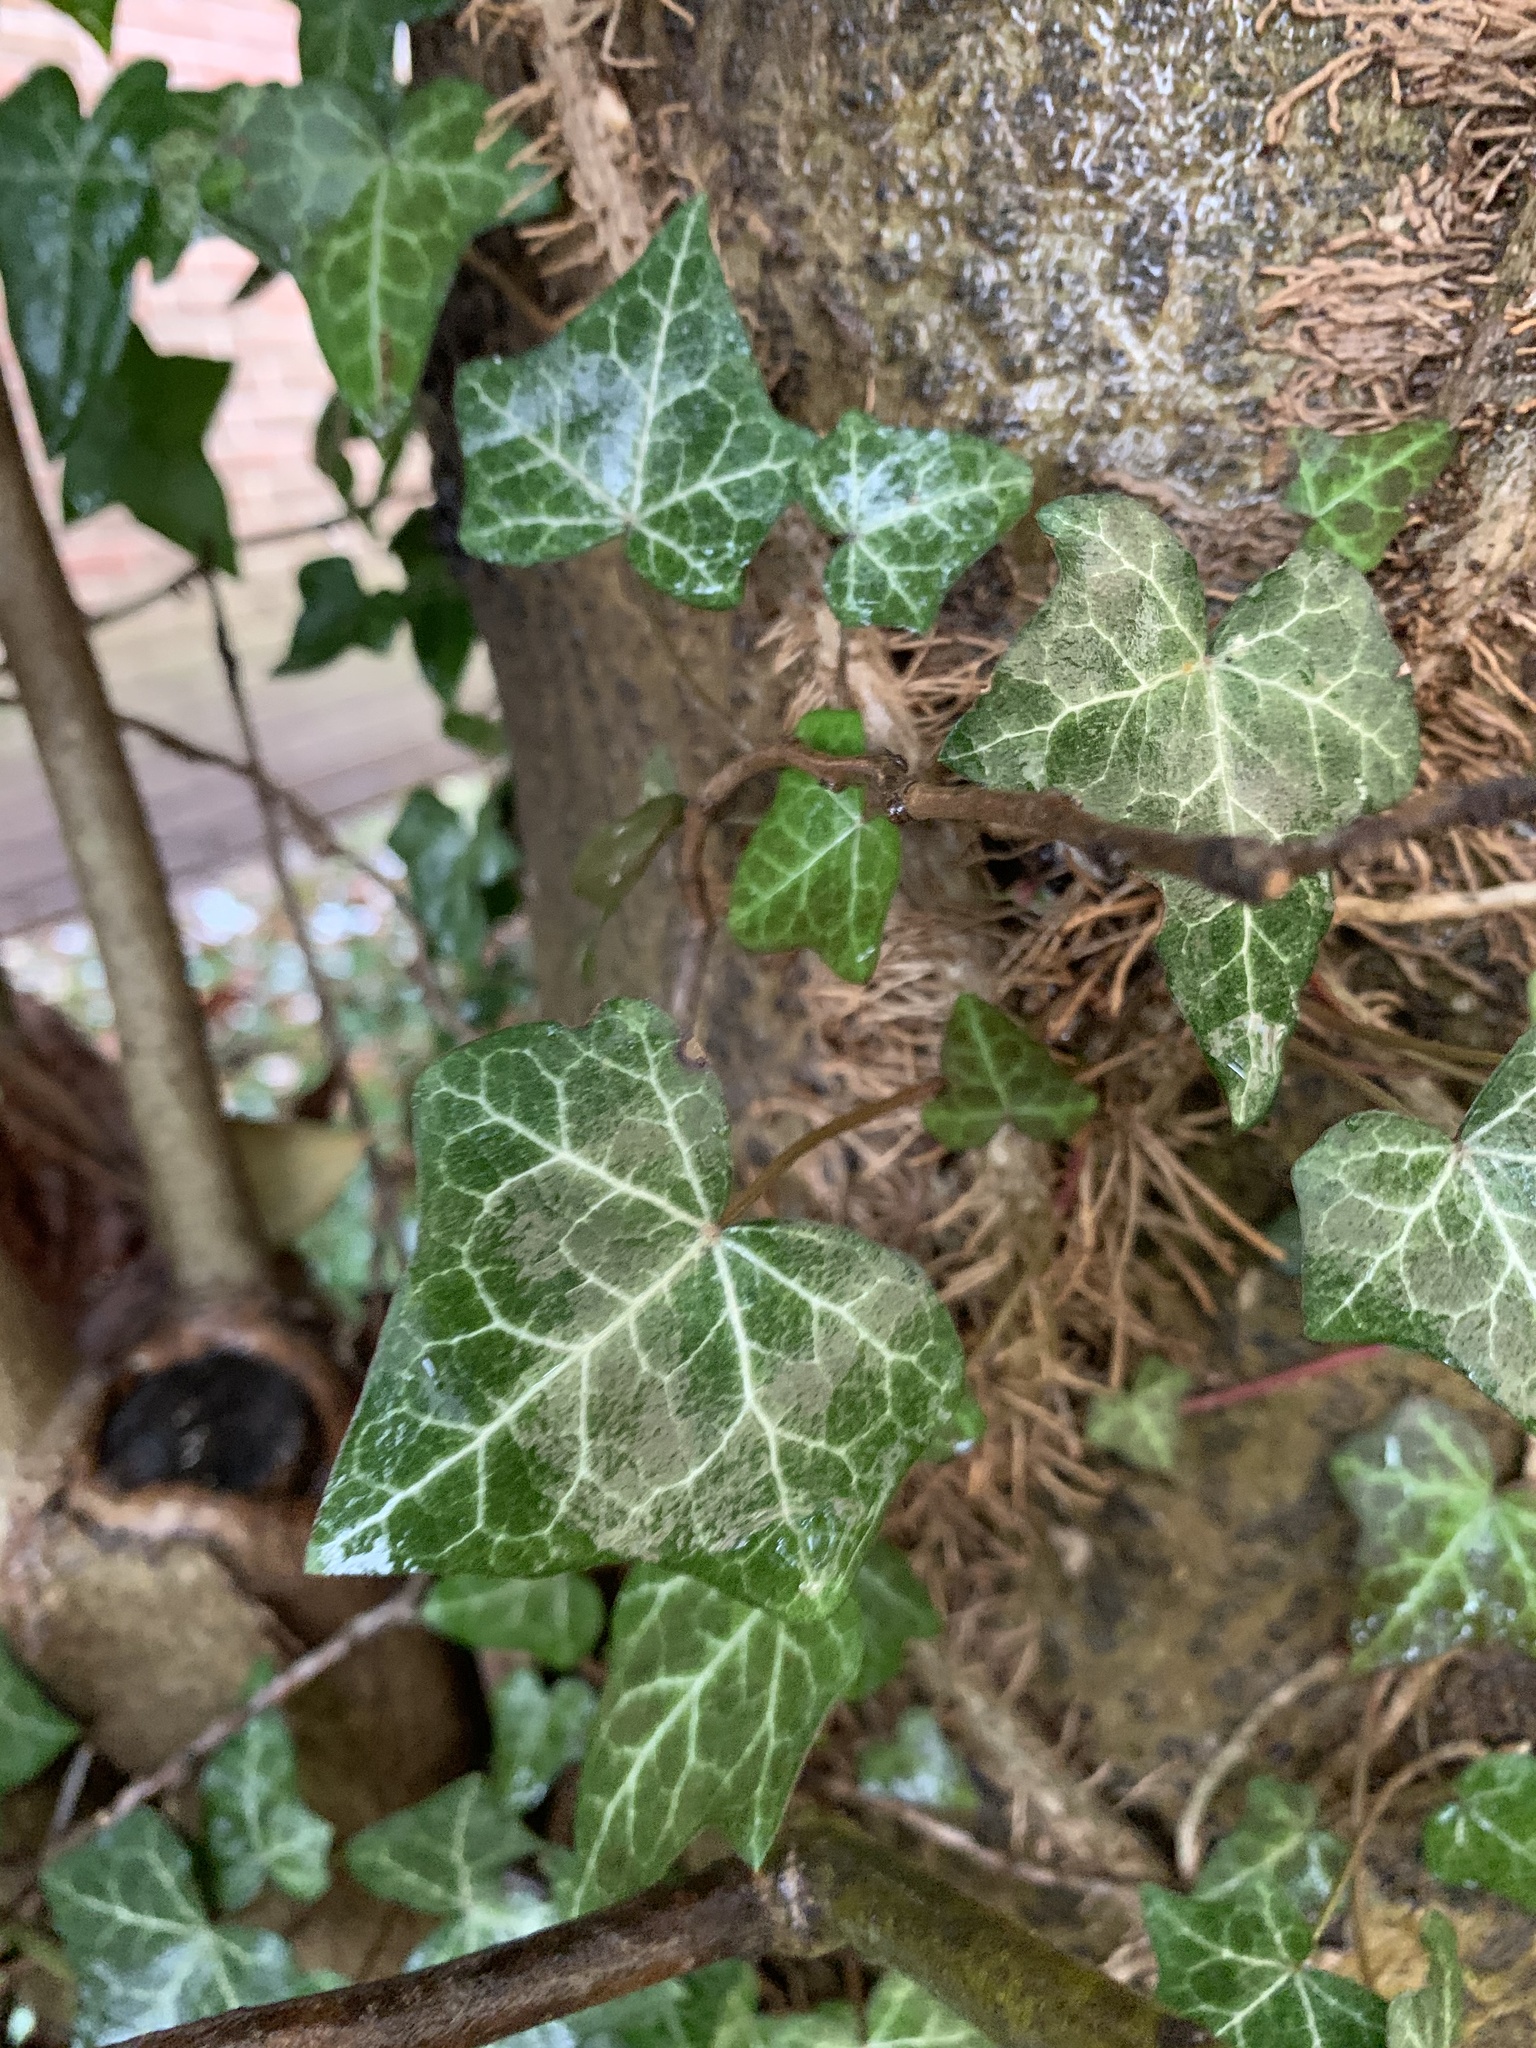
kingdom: Plantae
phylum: Tracheophyta
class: Magnoliopsida
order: Apiales
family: Araliaceae
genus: Hedera
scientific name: Hedera helix
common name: Ivy
